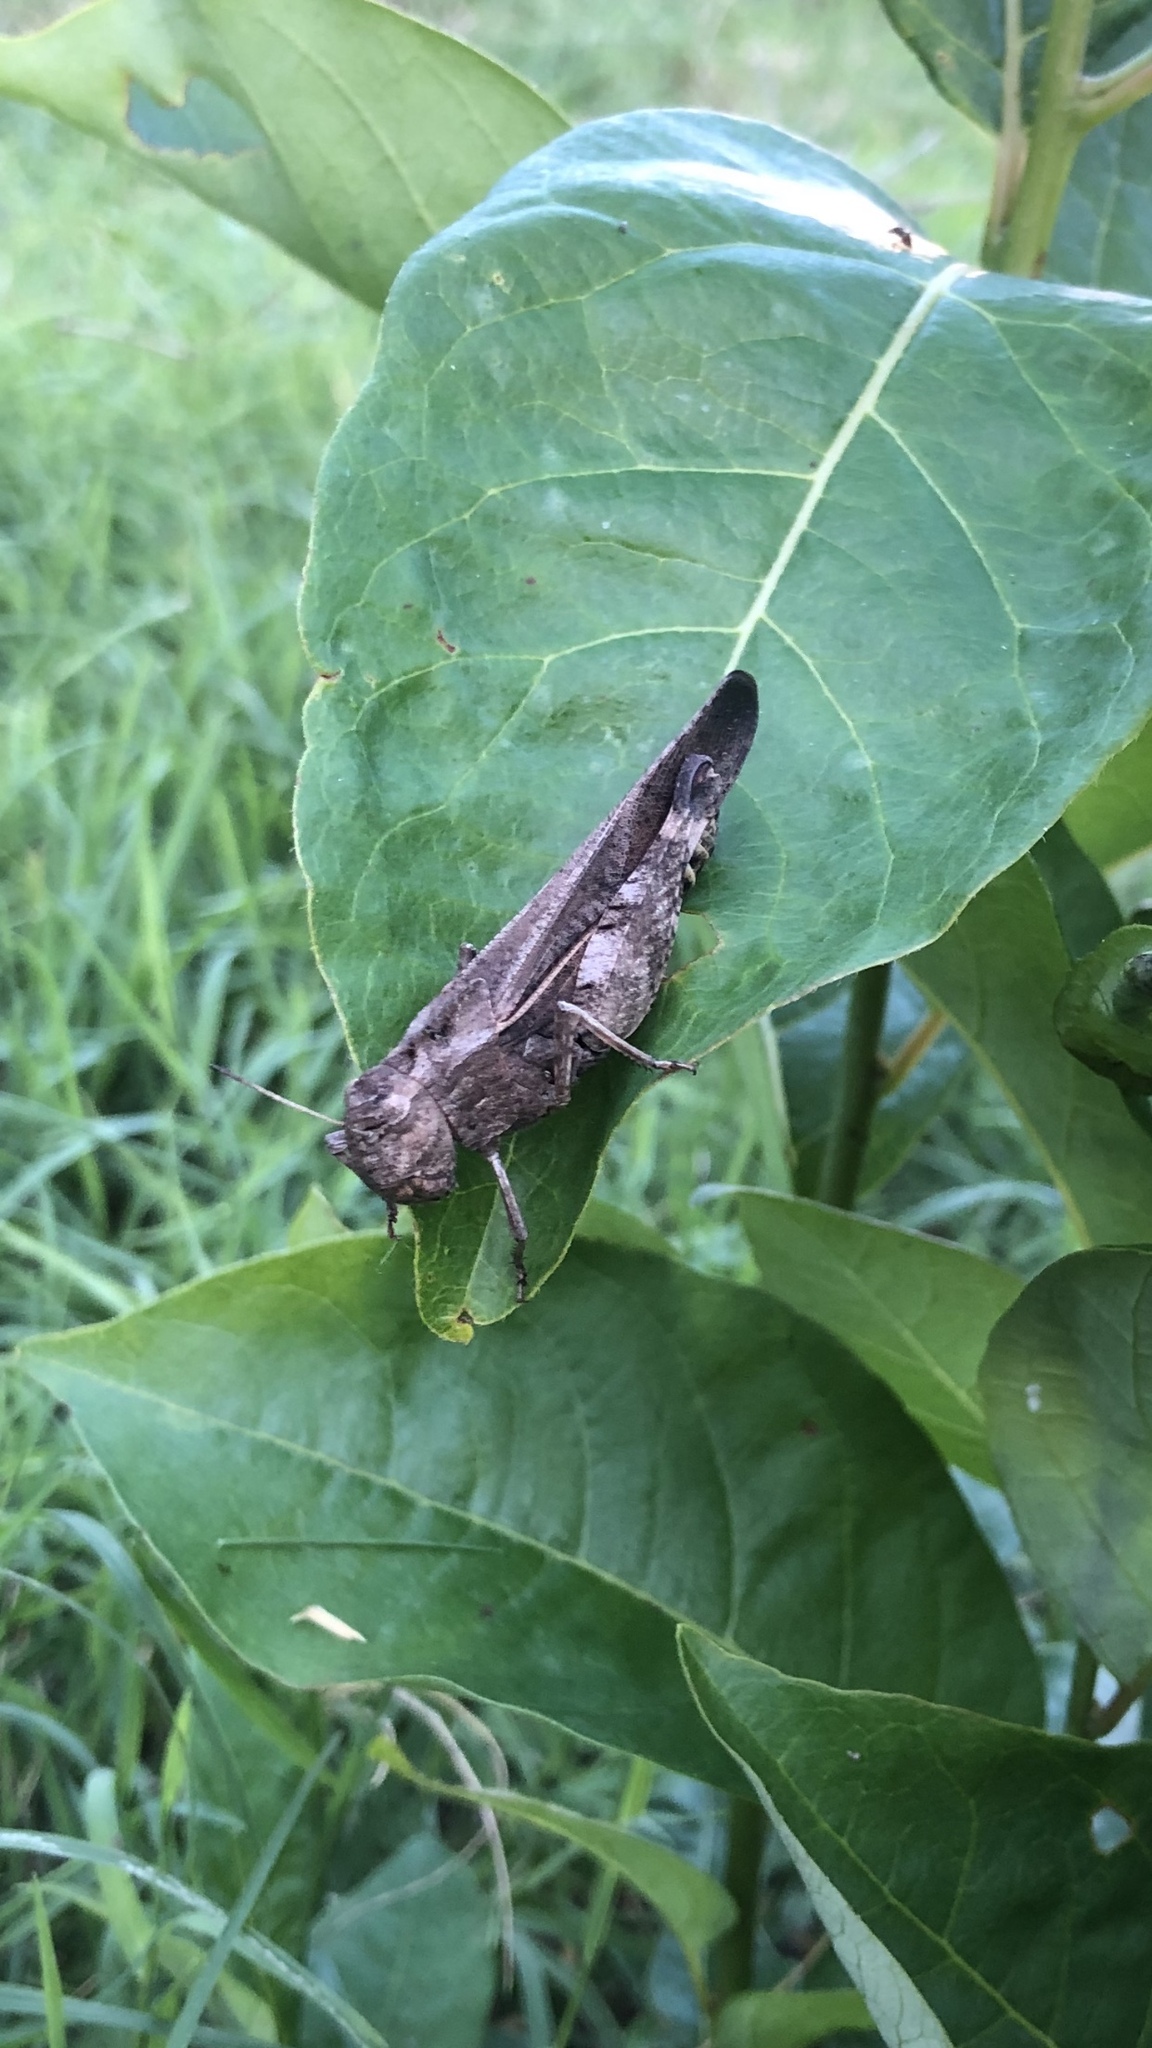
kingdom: Animalia
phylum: Arthropoda
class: Insecta
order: Orthoptera
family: Acrididae
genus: Arphia
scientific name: Arphia simplex
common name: Plains yellow-winged grasshopper
